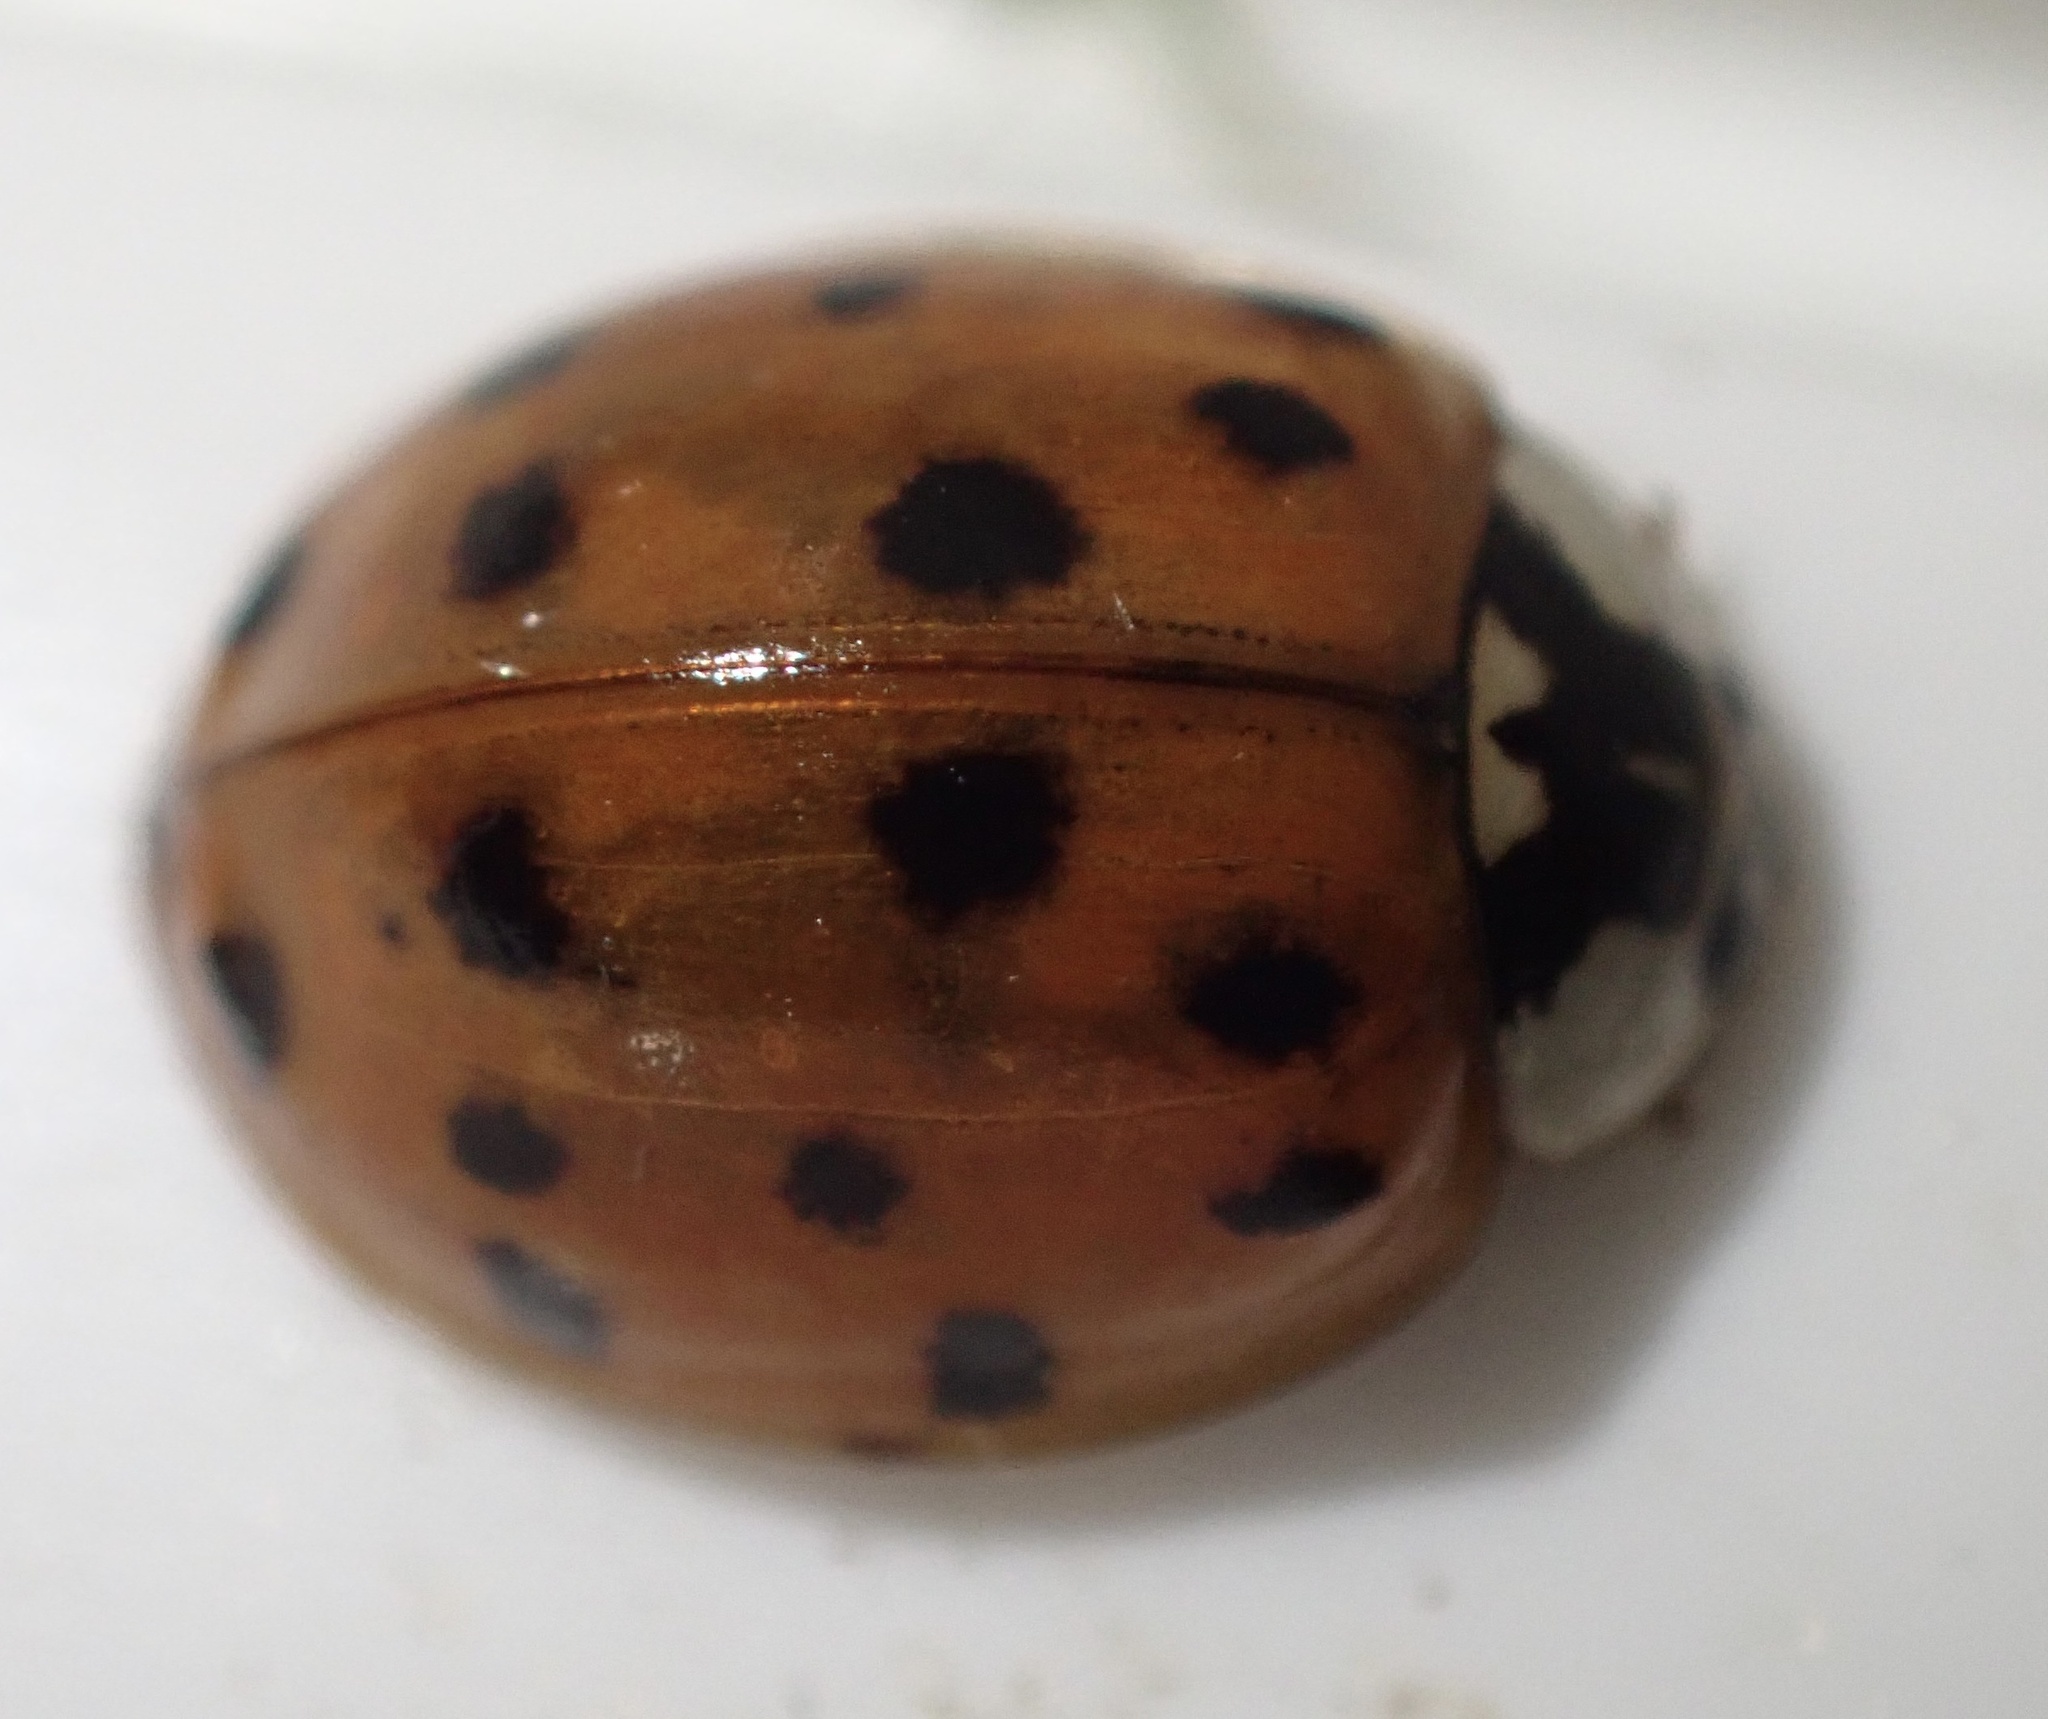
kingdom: Animalia
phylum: Arthropoda
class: Insecta
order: Coleoptera
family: Coccinellidae
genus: Harmonia
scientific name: Harmonia axyridis
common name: Harlequin ladybird
